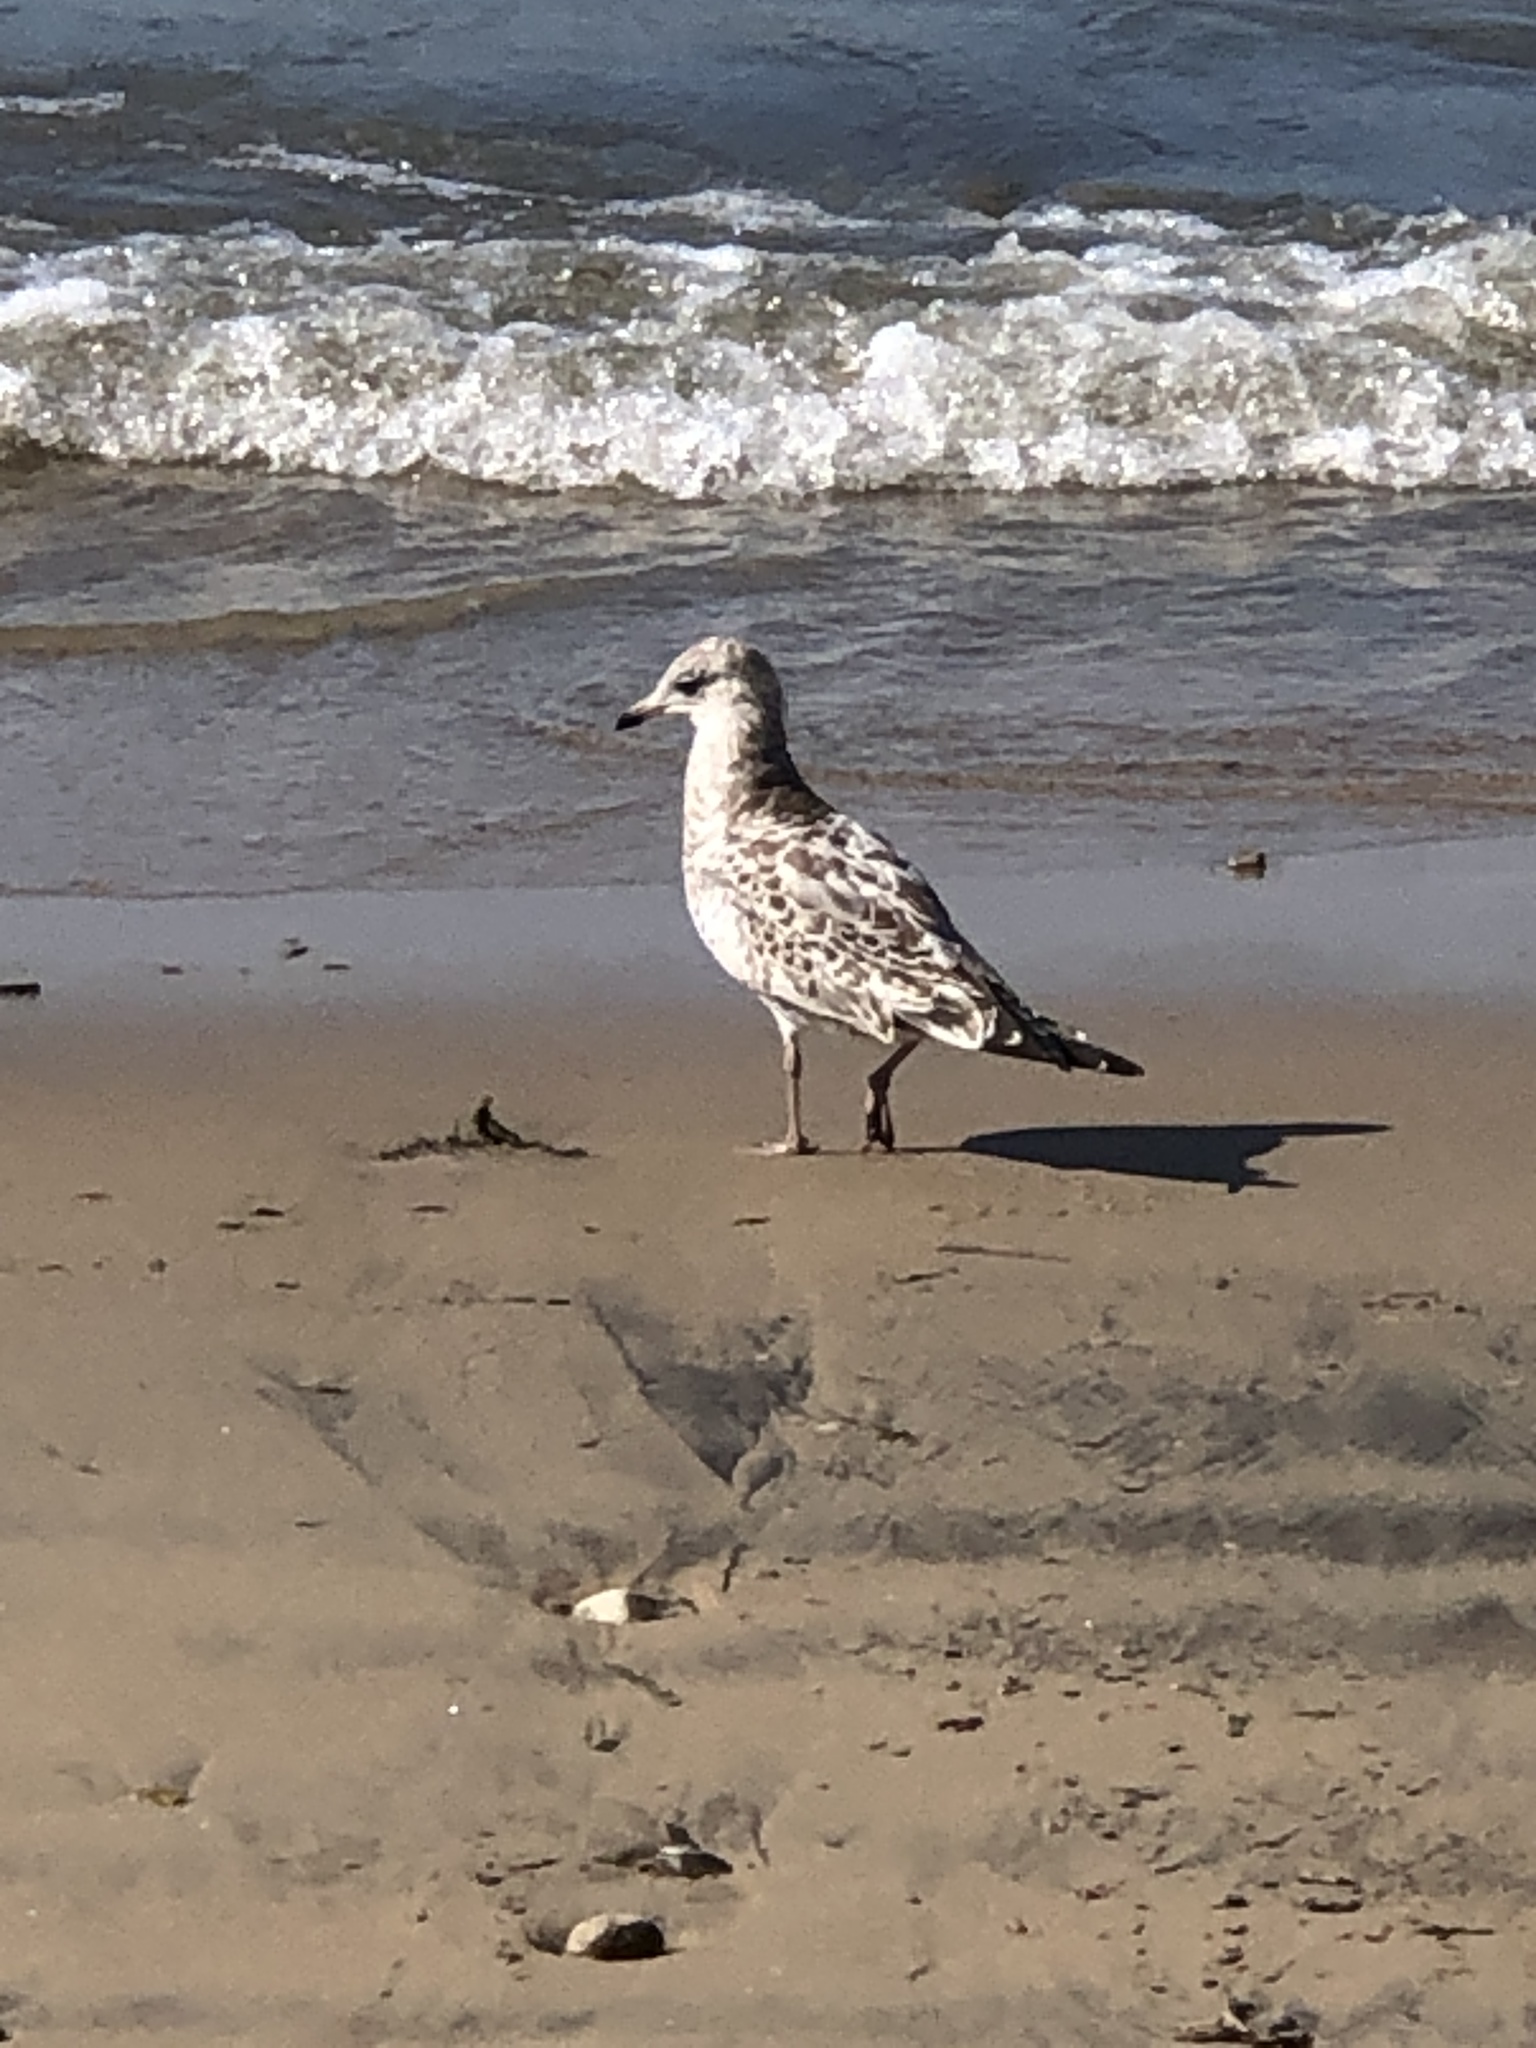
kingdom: Animalia
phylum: Chordata
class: Aves
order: Charadriiformes
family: Laridae
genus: Larus
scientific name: Larus delawarensis
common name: Ring-billed gull
